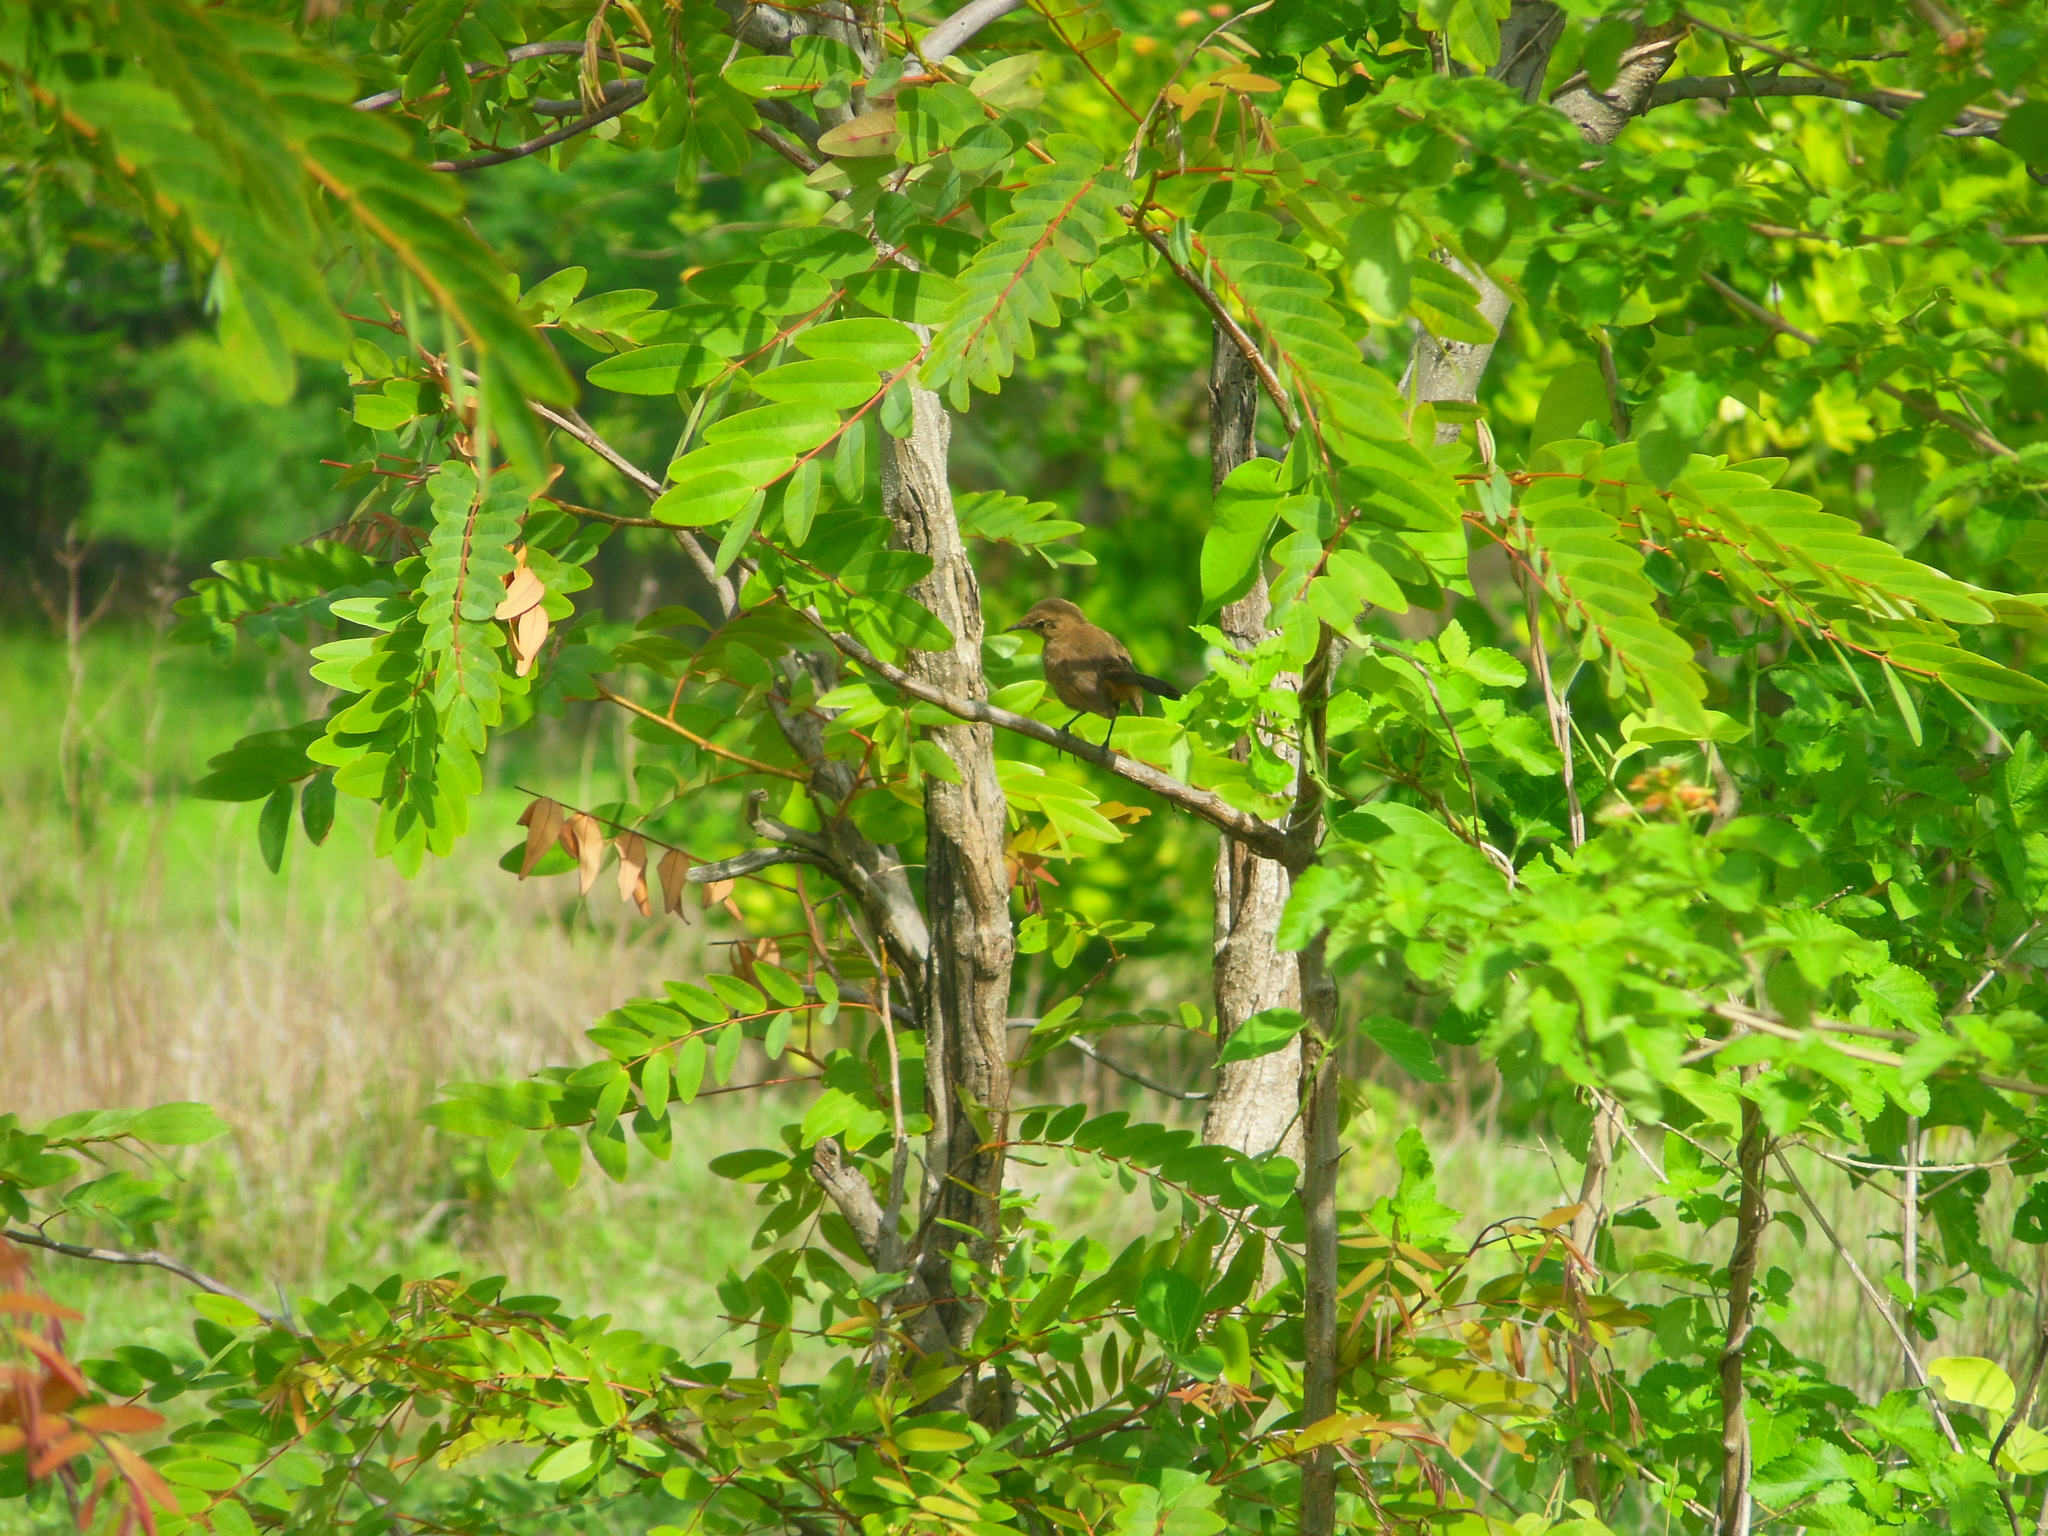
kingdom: Animalia
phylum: Chordata
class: Aves
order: Passeriformes
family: Muscicapidae
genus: Saxicoloides
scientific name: Saxicoloides fulicatus
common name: Indian robin
